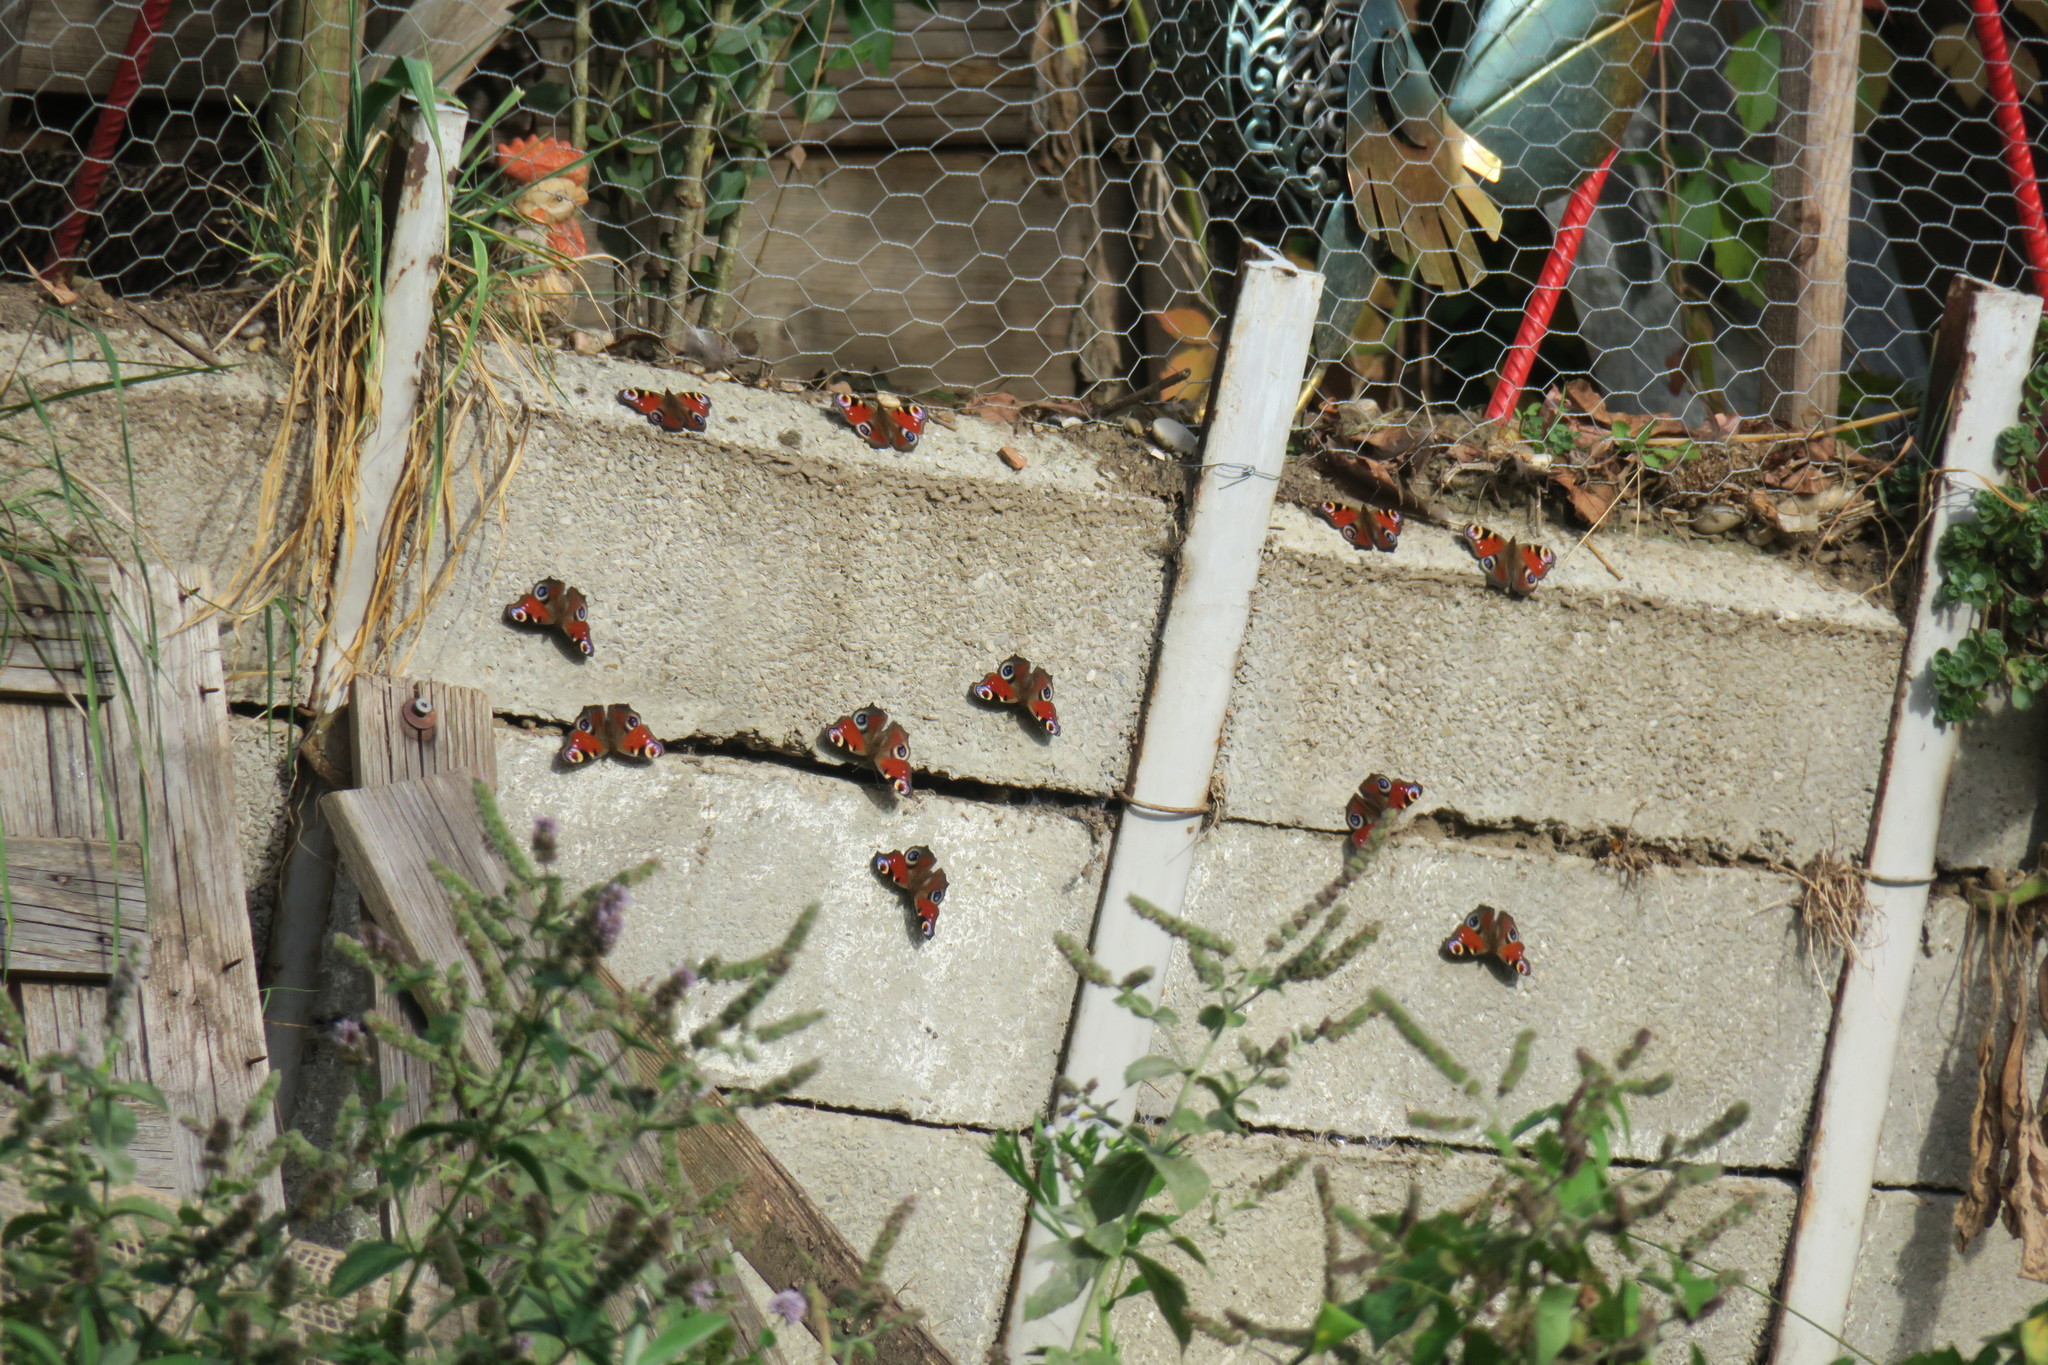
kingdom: Animalia
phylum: Arthropoda
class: Insecta
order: Lepidoptera
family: Nymphalidae
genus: Aglais
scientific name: Aglais io
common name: Peacock
